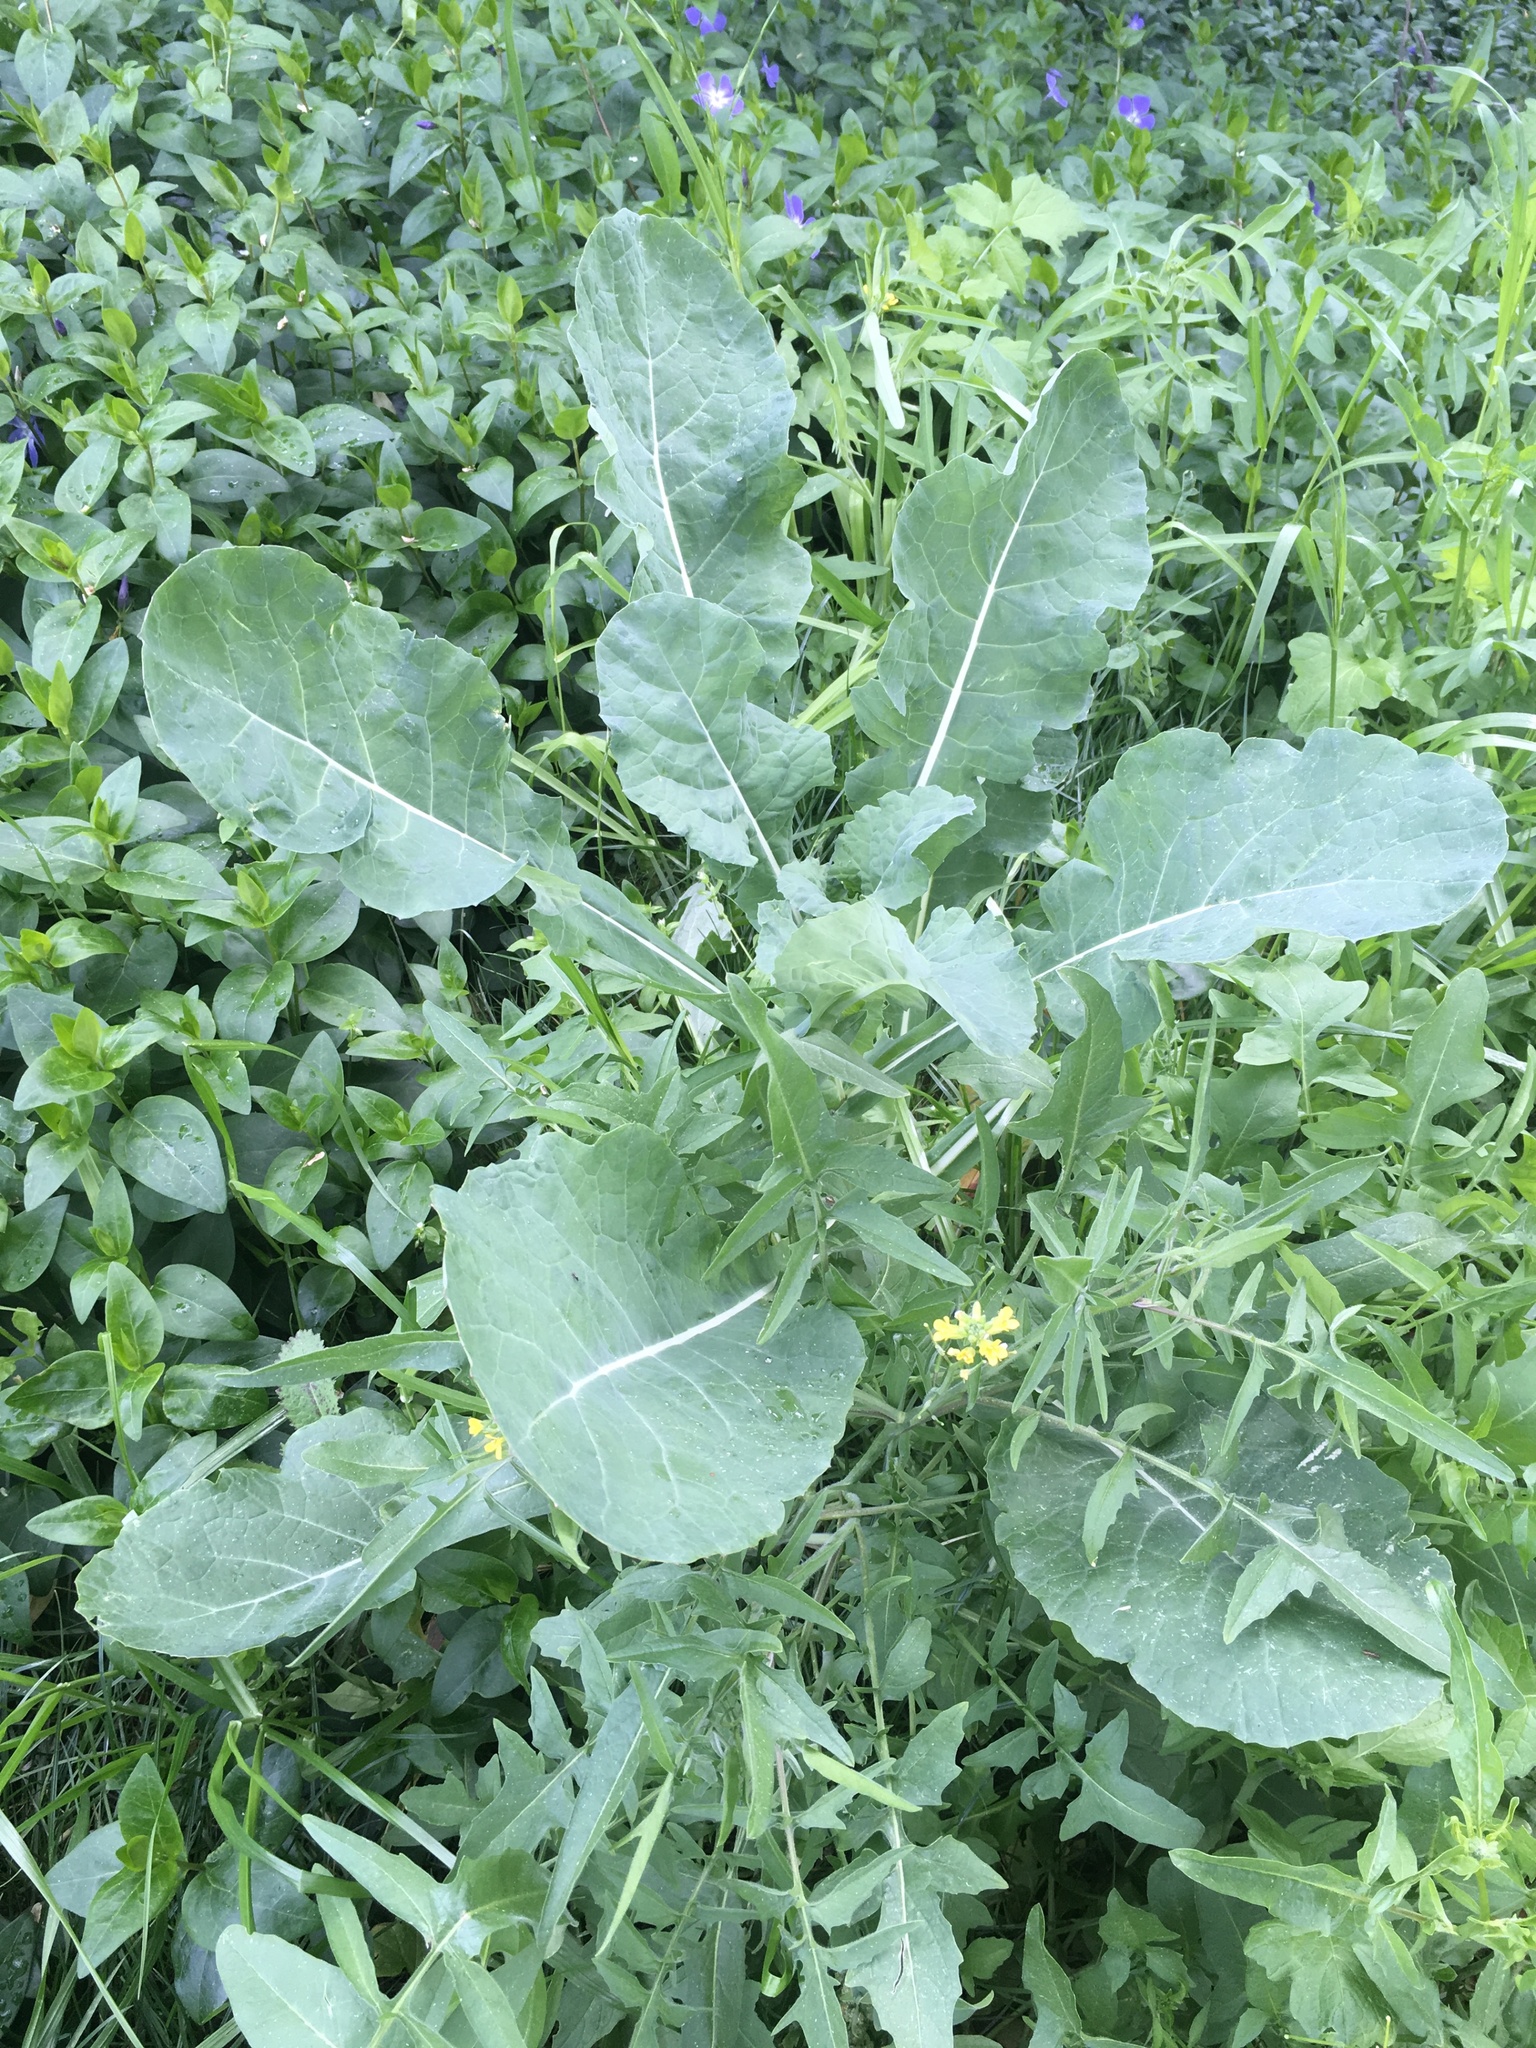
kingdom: Plantae
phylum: Tracheophyta
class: Magnoliopsida
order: Brassicales
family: Brassicaceae
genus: Brassica
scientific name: Brassica oleracea
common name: Cabbage
